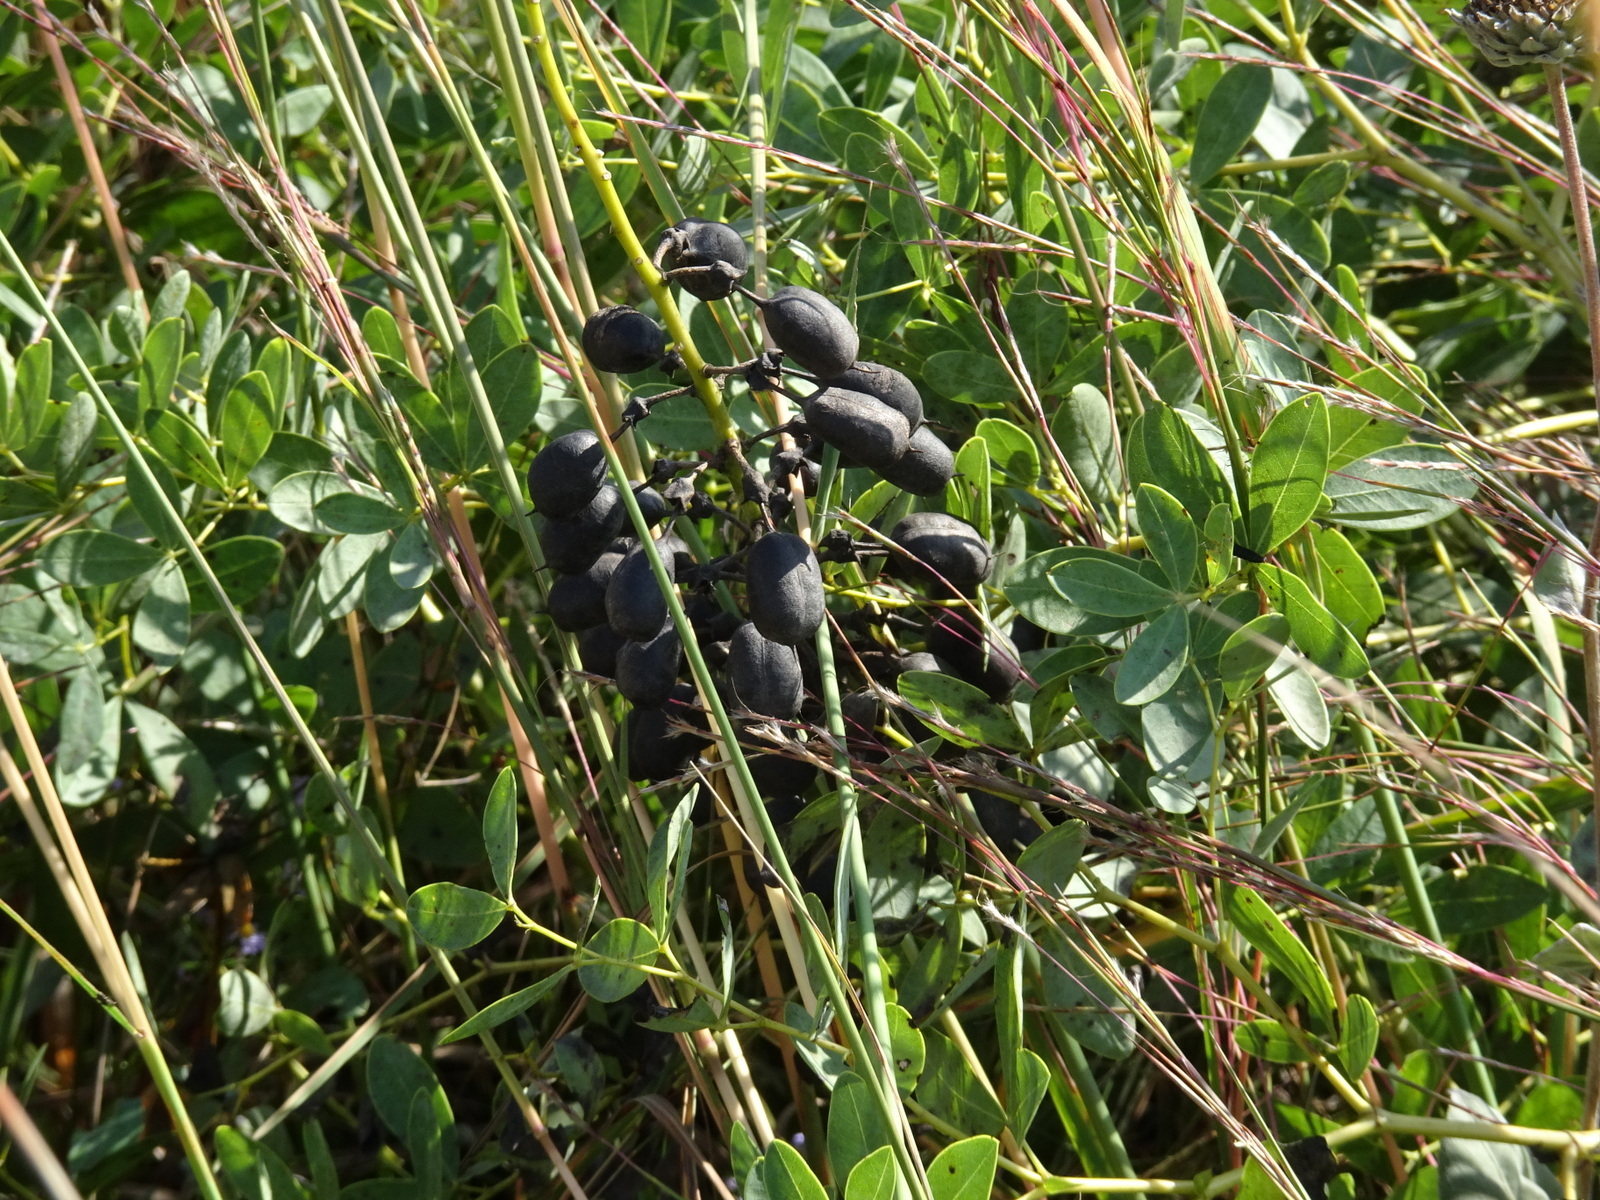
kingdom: Plantae
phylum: Tracheophyta
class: Magnoliopsida
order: Fabales
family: Fabaceae
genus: Baptisia
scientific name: Baptisia alba
